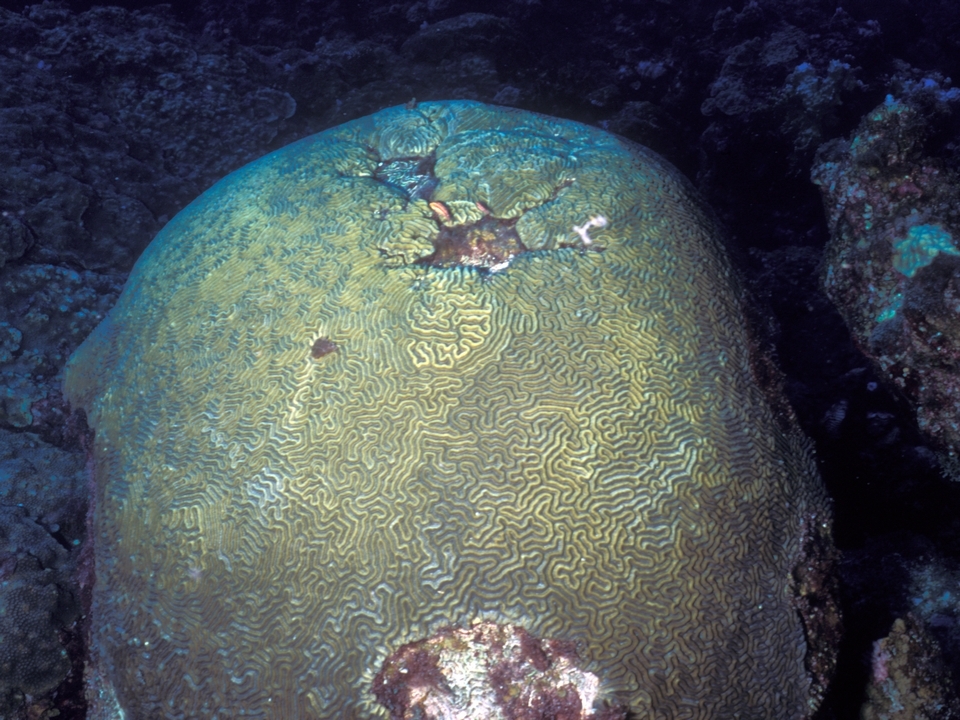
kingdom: Animalia
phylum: Cnidaria
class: Anthozoa
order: Scleractinia
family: Faviidae
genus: Pseudodiploria
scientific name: Pseudodiploria strigosa
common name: Symmetrical brain coral
